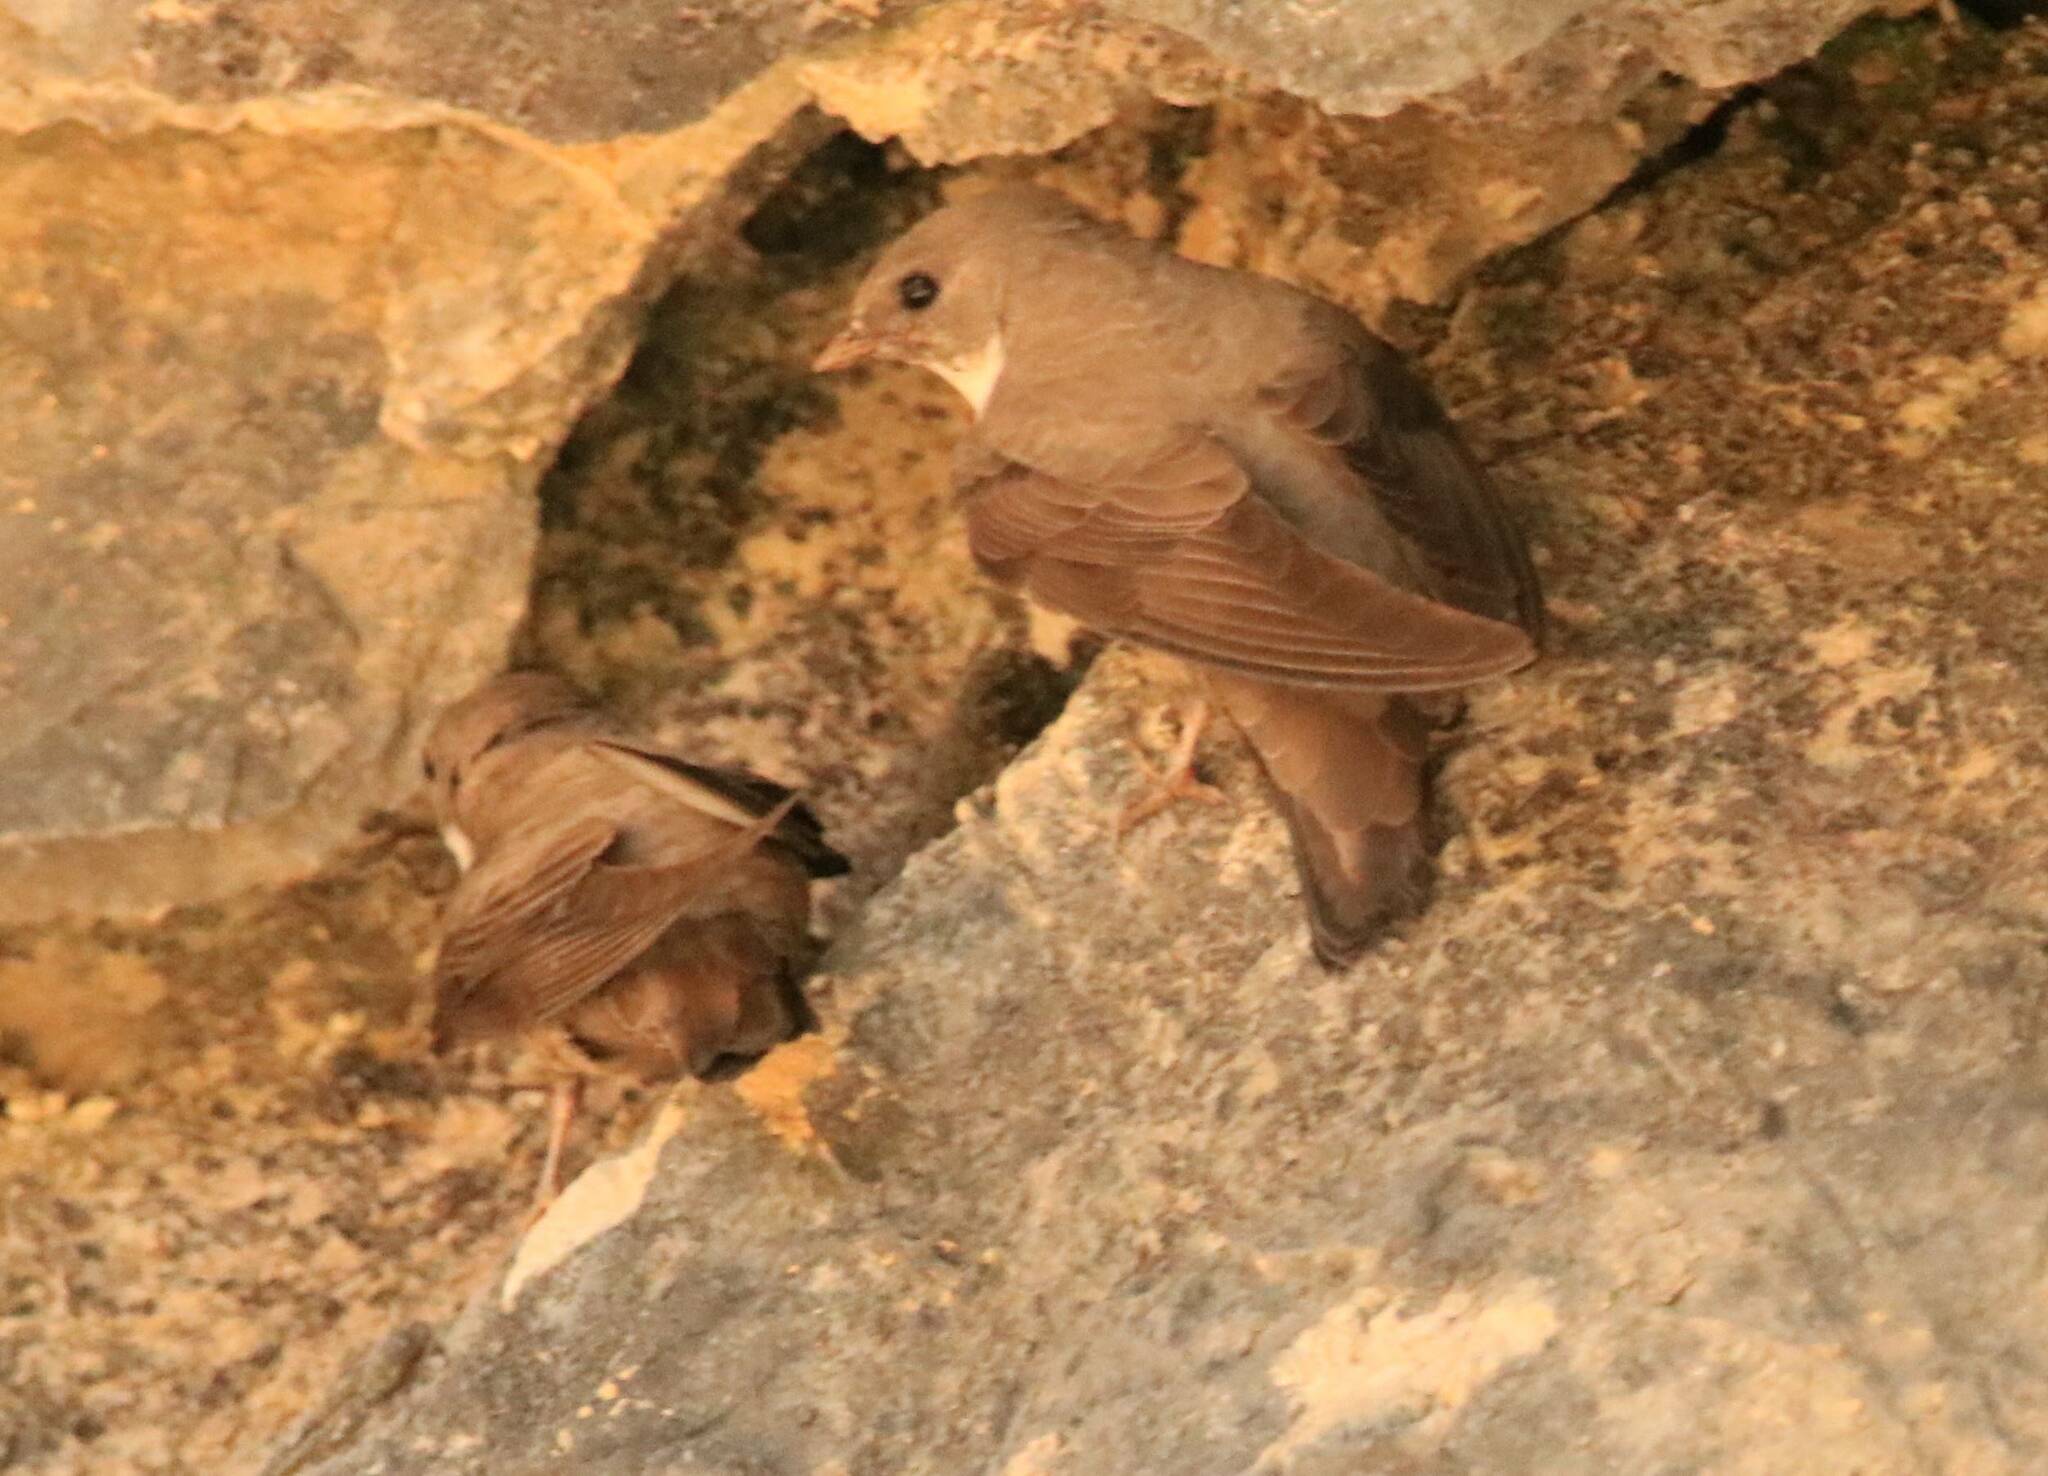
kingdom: Animalia
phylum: Chordata
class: Aves
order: Passeriformes
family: Hirundinidae
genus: Ptyonoprogne
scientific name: Ptyonoprogne rupestris
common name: Eurasian crag martin
